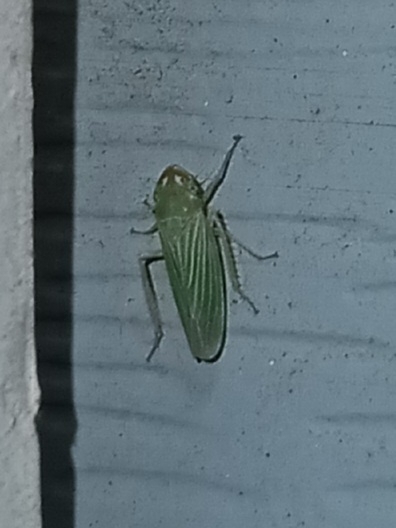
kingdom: Animalia
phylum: Arthropoda
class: Insecta
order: Hemiptera
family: Cicadellidae
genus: Xyphon
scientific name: Xyphon flaviceps
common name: Yellowheaded leafhopper
